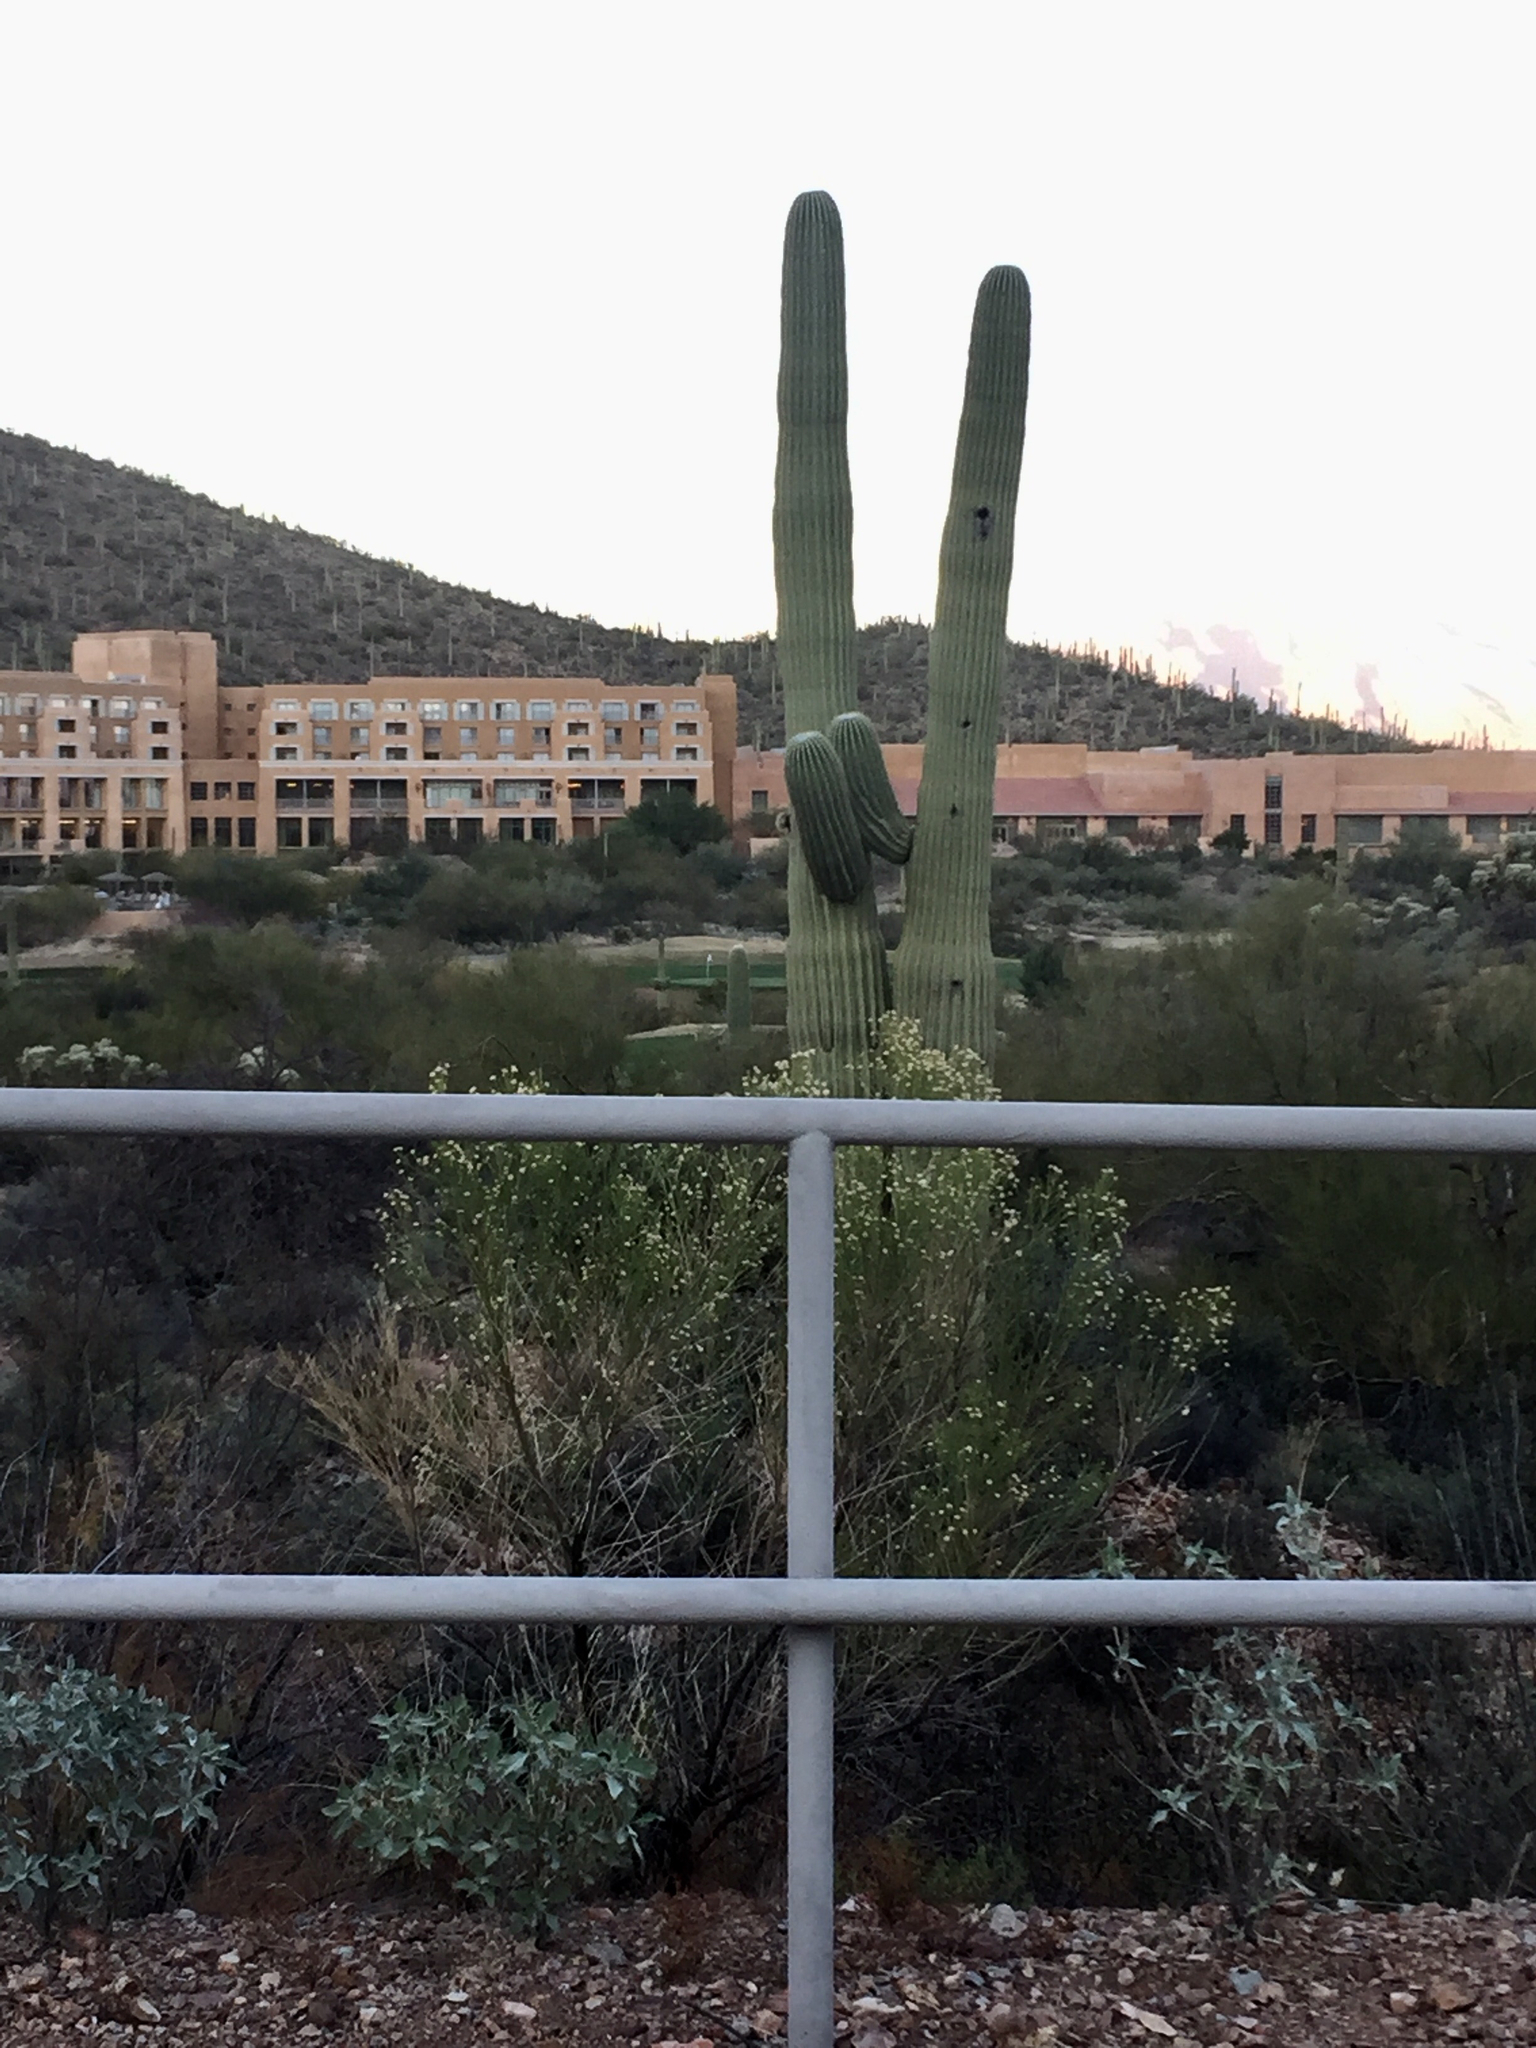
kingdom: Plantae
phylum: Tracheophyta
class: Magnoliopsida
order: Caryophyllales
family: Cactaceae
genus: Carnegiea
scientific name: Carnegiea gigantea
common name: Saguaro
